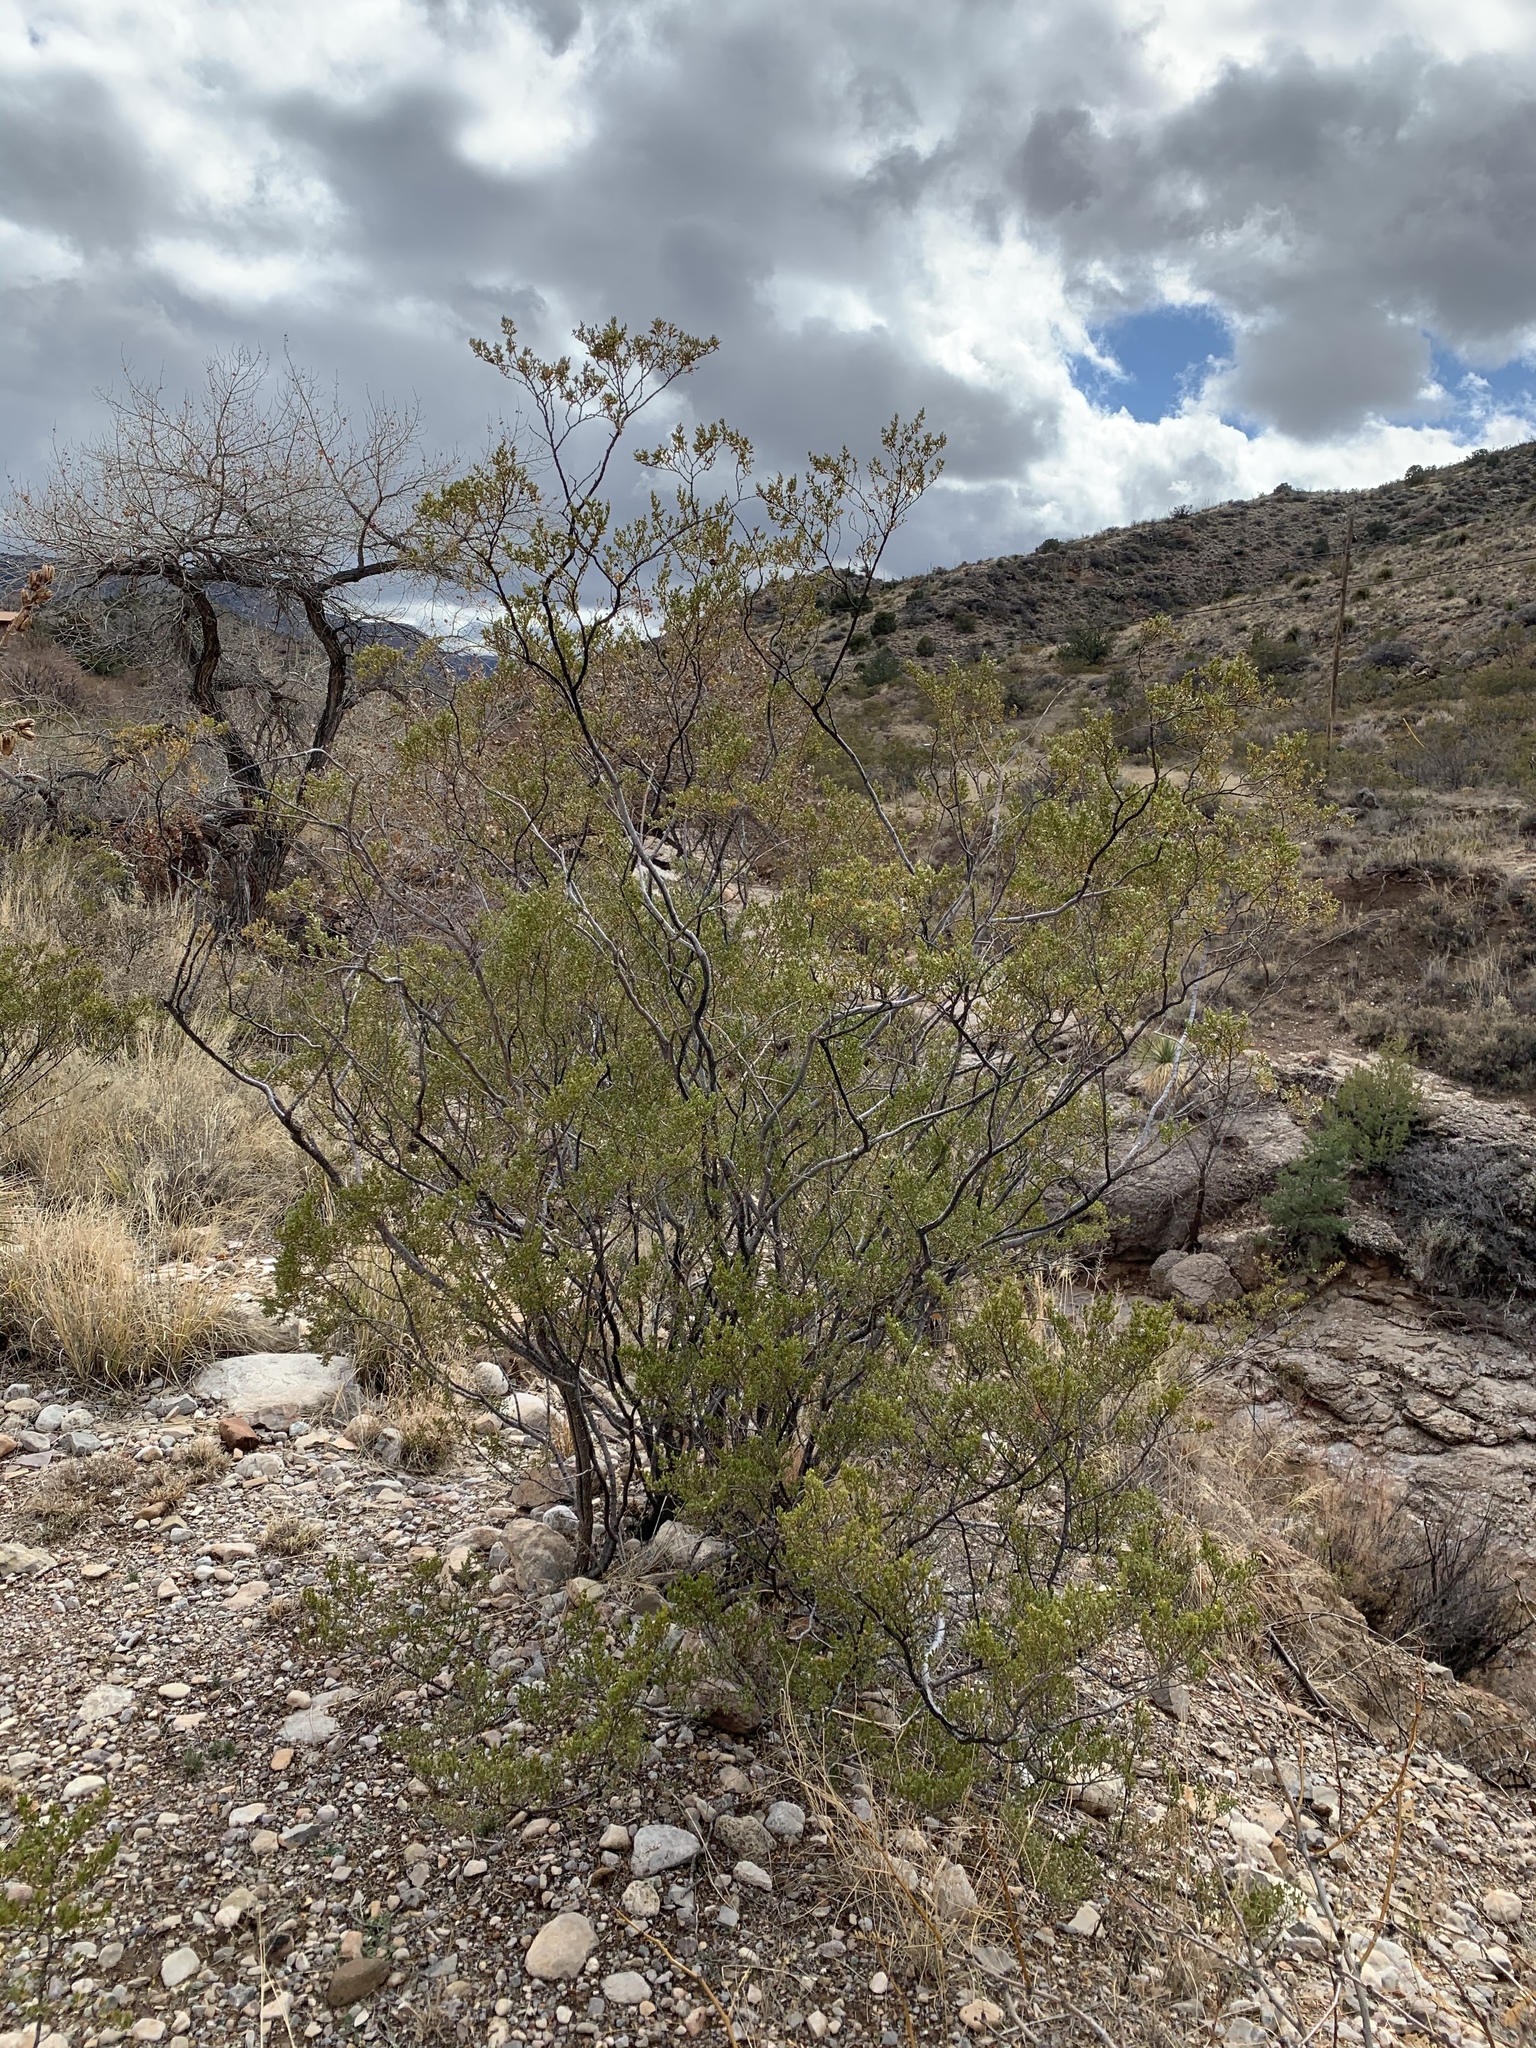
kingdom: Plantae
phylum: Tracheophyta
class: Magnoliopsida
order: Zygophyllales
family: Zygophyllaceae
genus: Larrea
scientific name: Larrea tridentata
